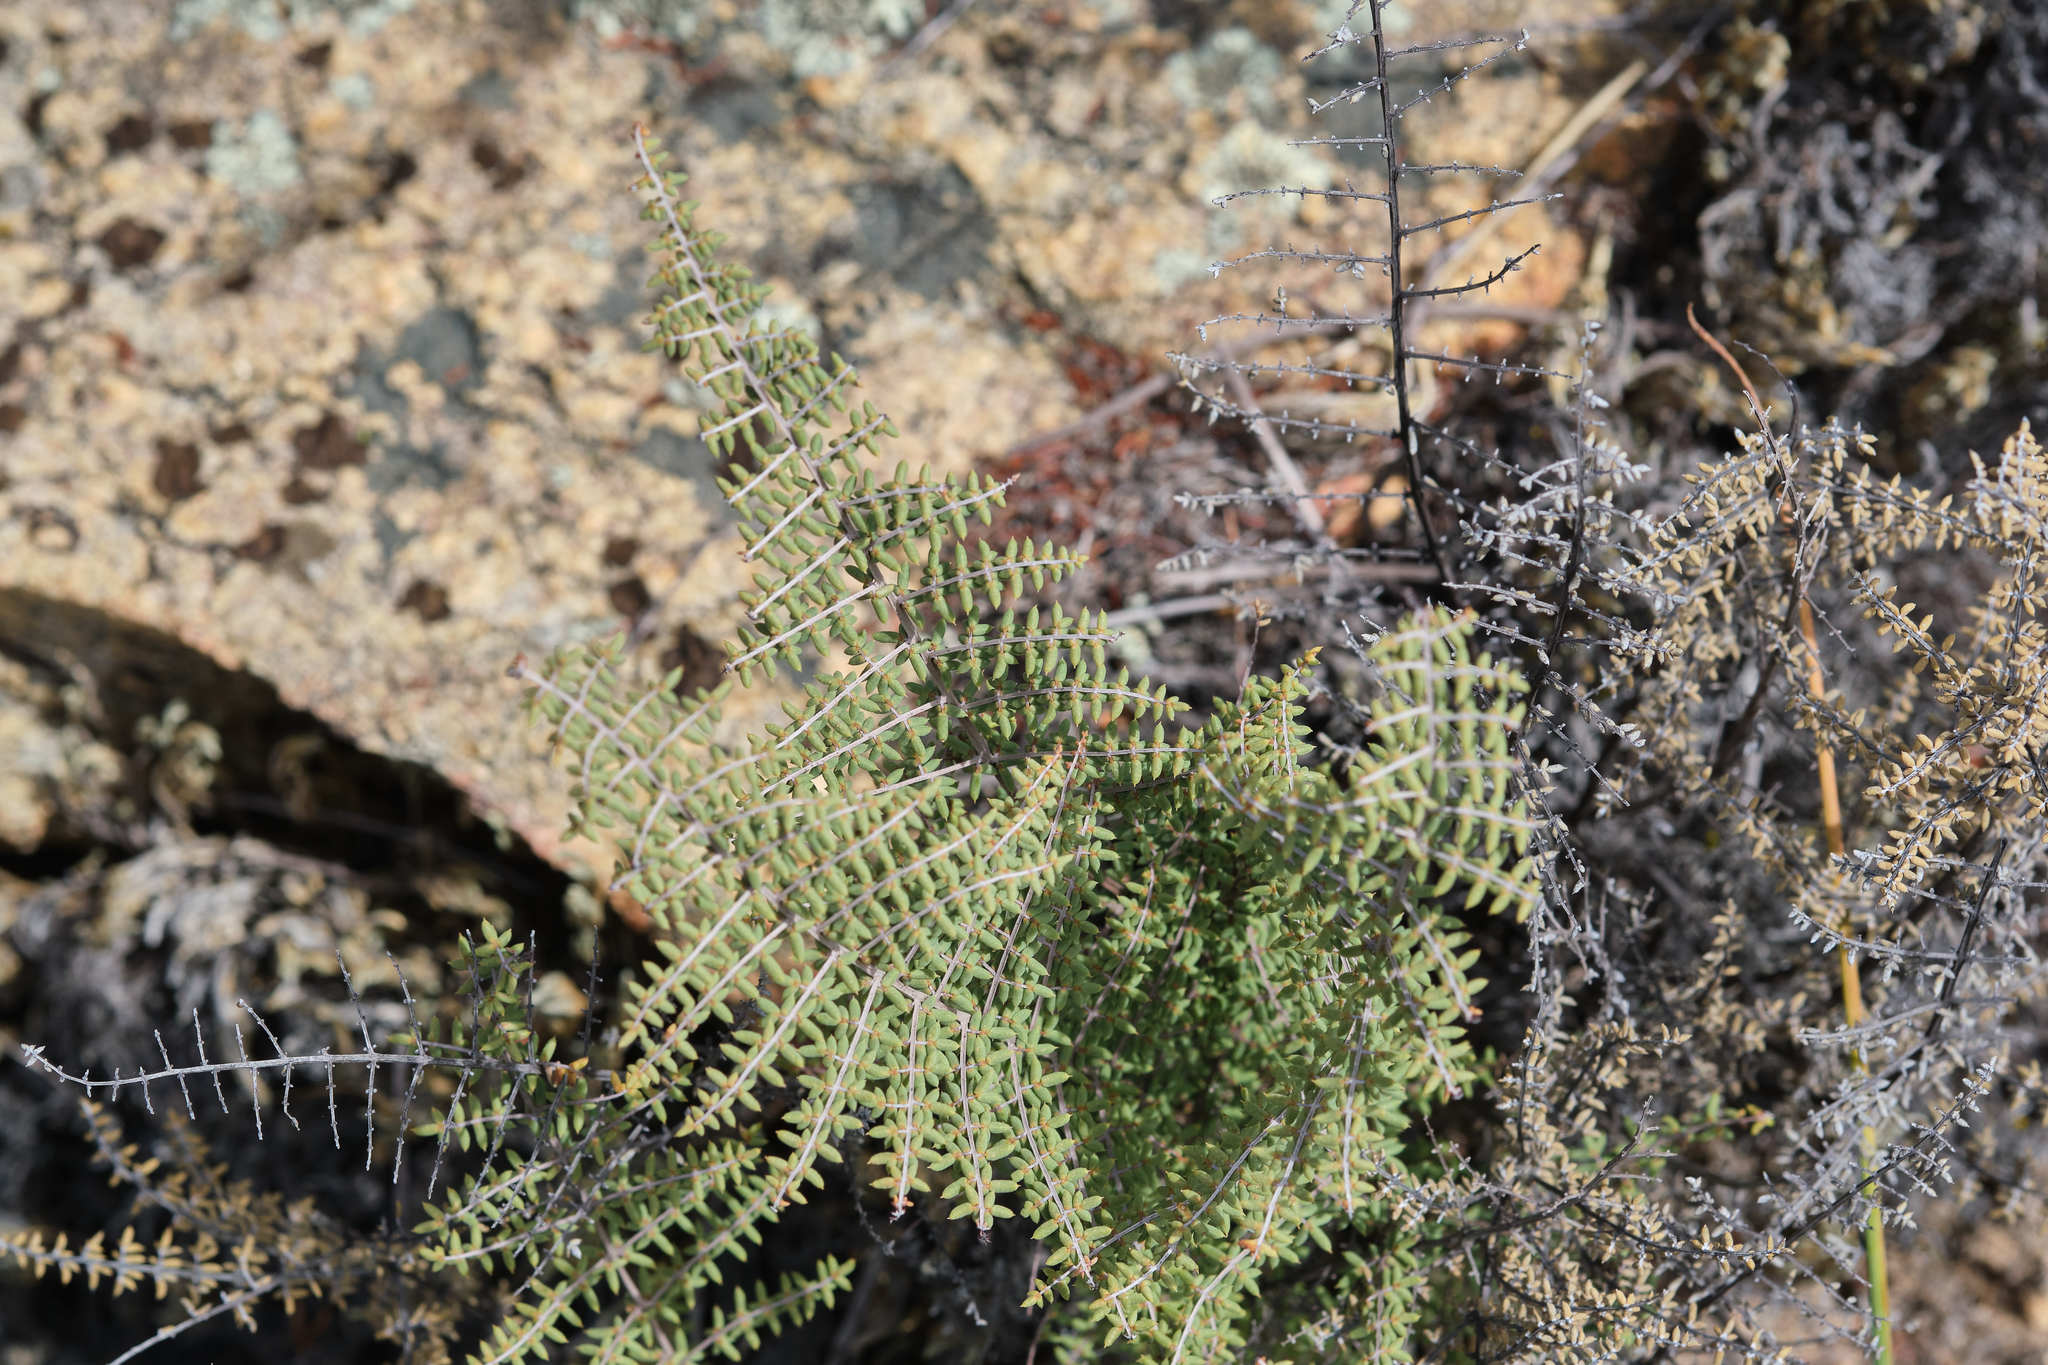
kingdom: Plantae
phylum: Tracheophyta
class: Polypodiopsida
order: Polypodiales
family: Pteridaceae
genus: Pellaea
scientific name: Pellaea mucronata
